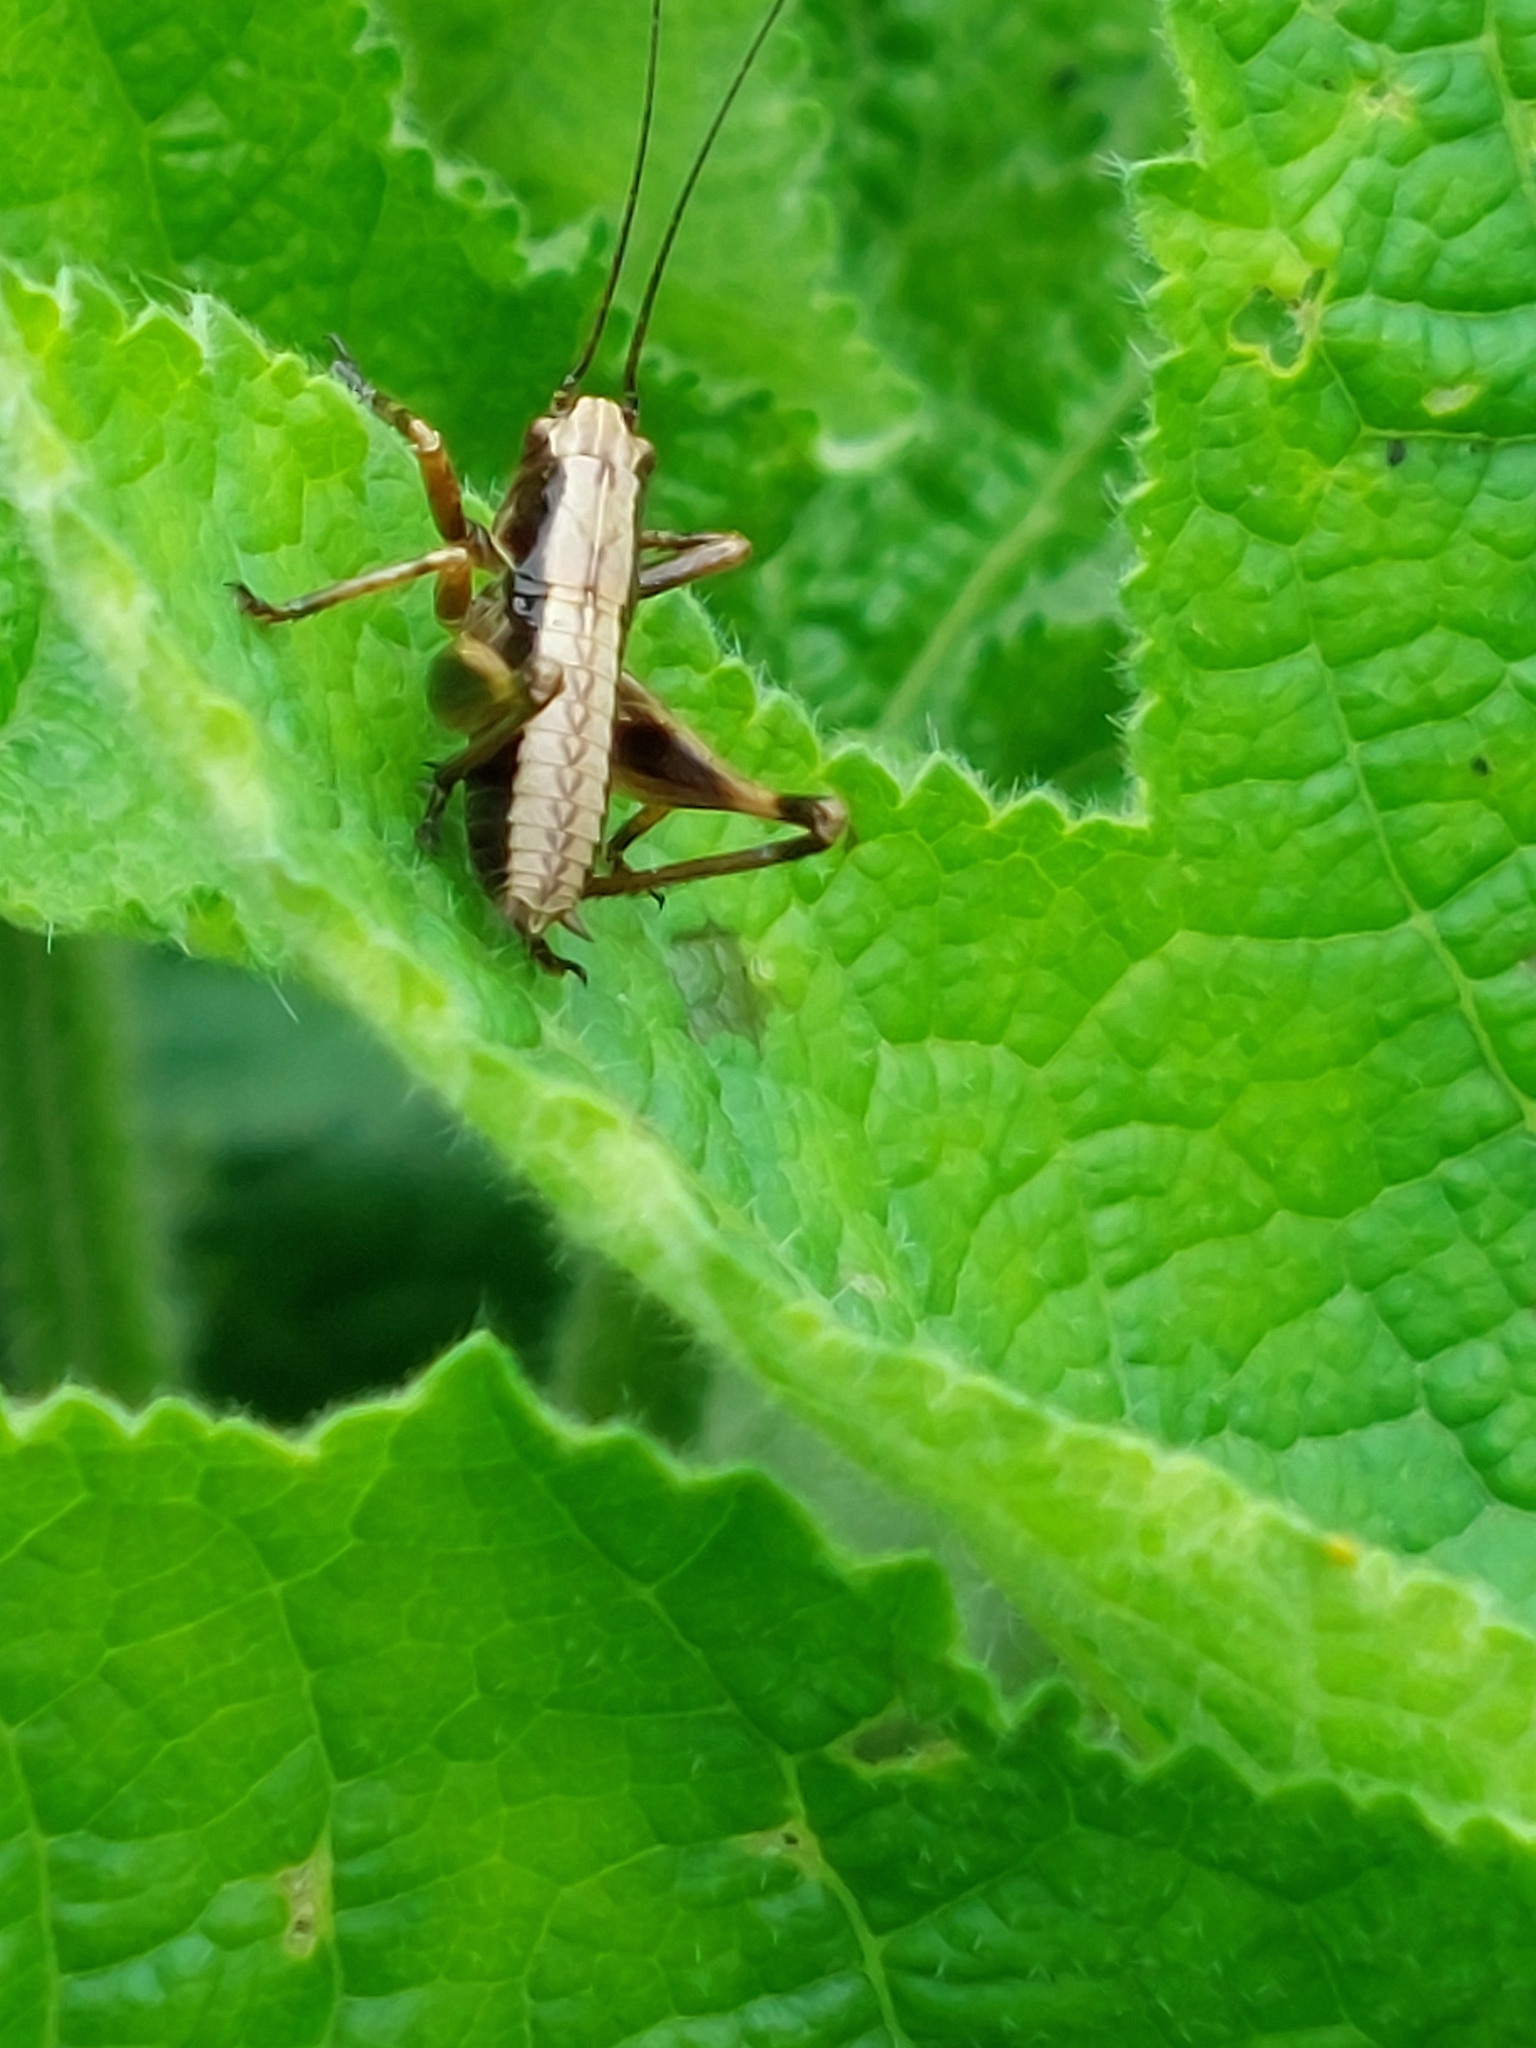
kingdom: Animalia
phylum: Arthropoda
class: Insecta
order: Orthoptera
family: Tettigoniidae
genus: Pholidoptera
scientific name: Pholidoptera griseoaptera
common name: Dark bush-cricket
